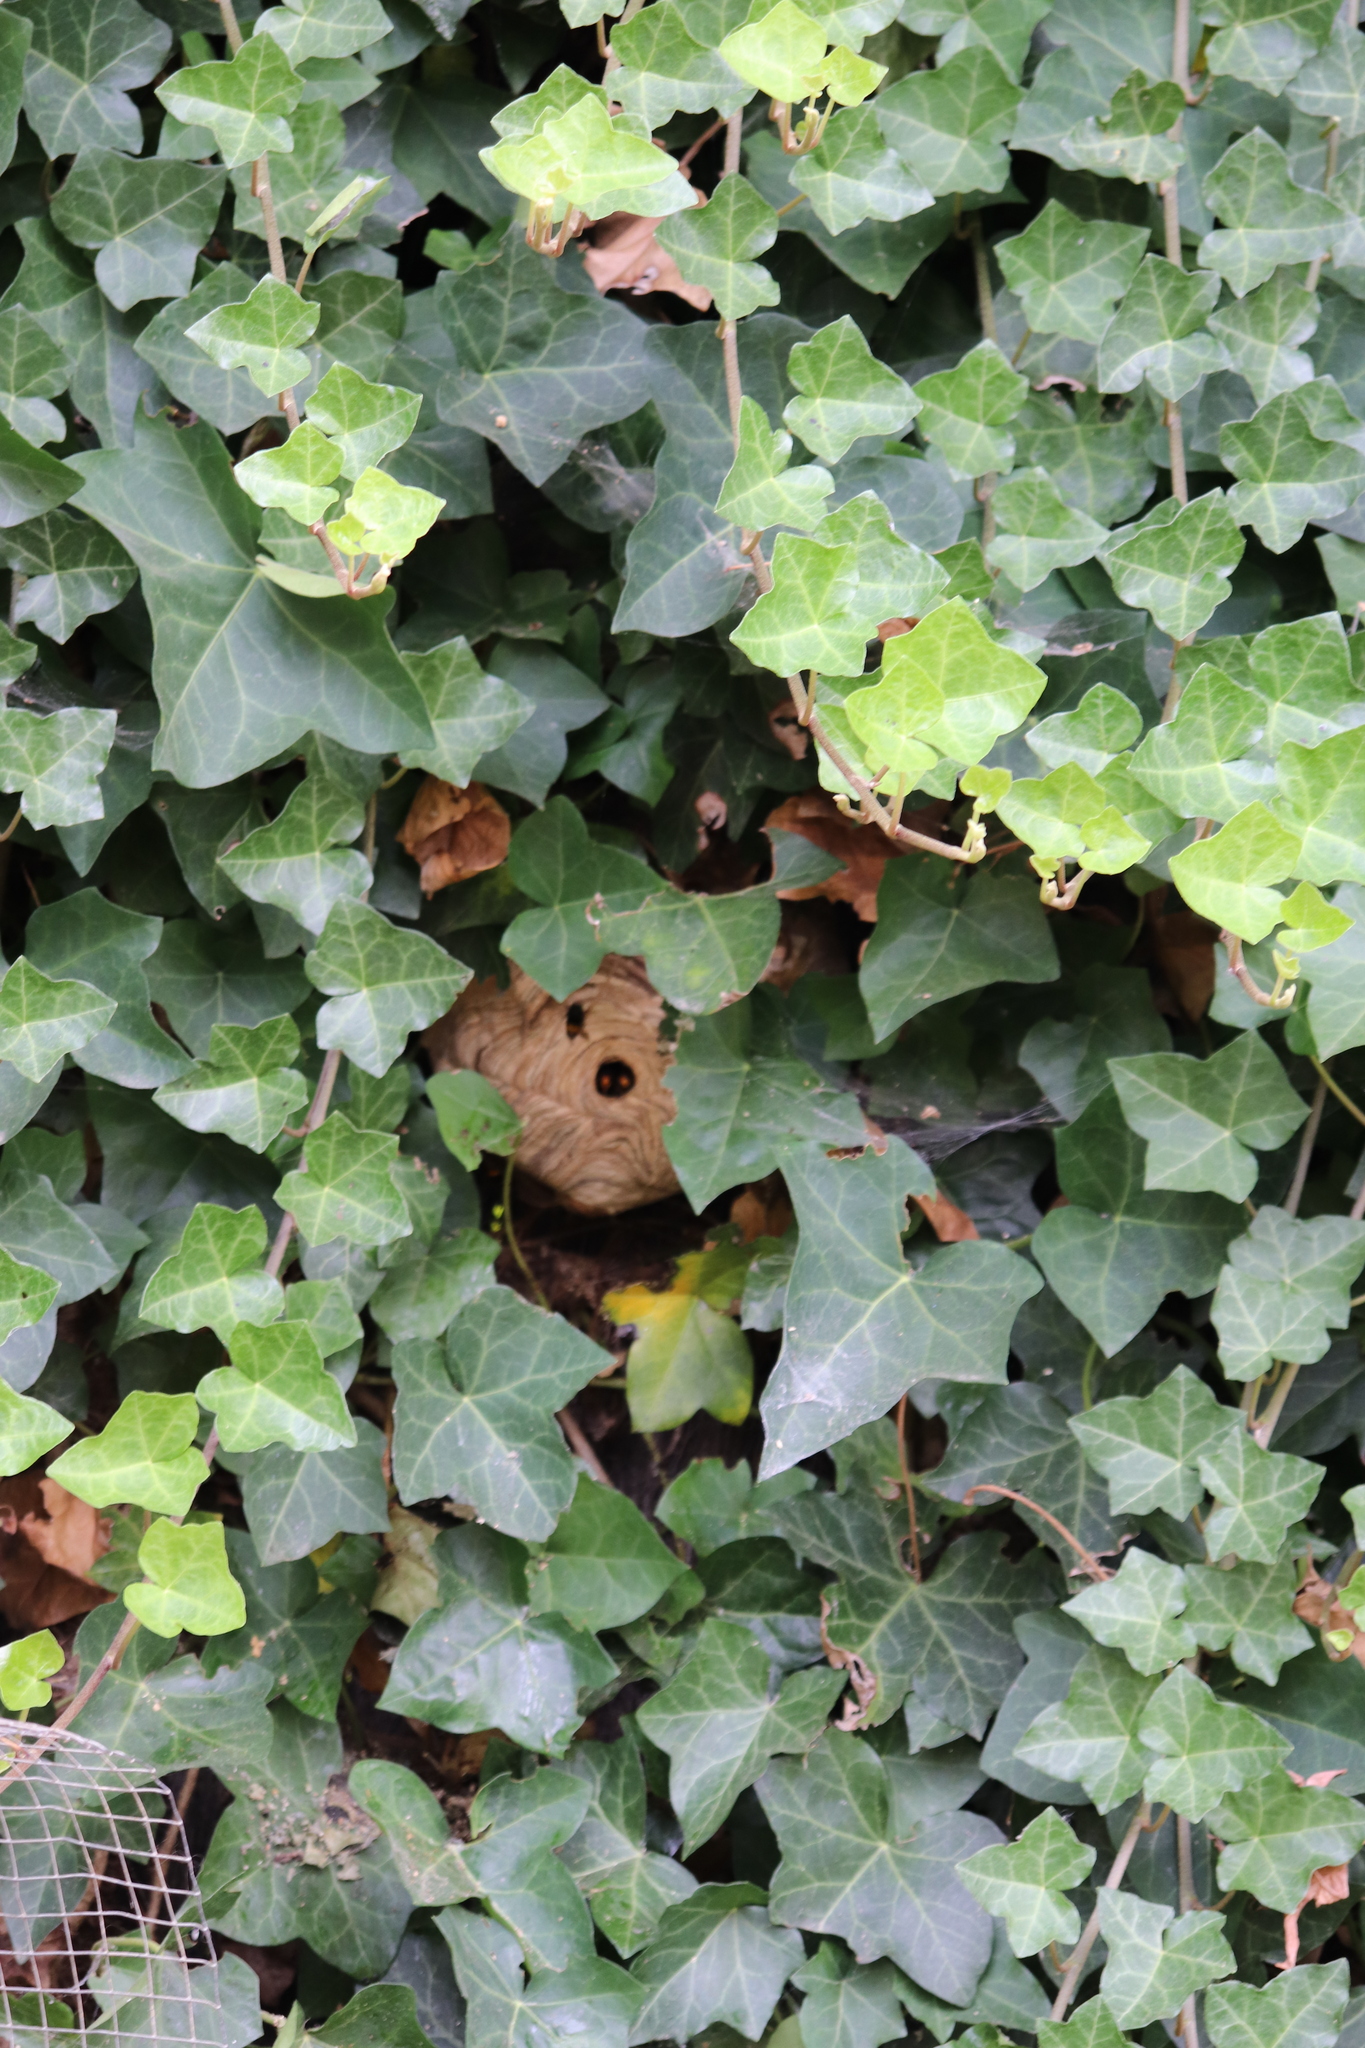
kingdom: Animalia
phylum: Arthropoda
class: Insecta
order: Hymenoptera
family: Vespidae
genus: Vespa
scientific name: Vespa velutina
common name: Asian hornet
